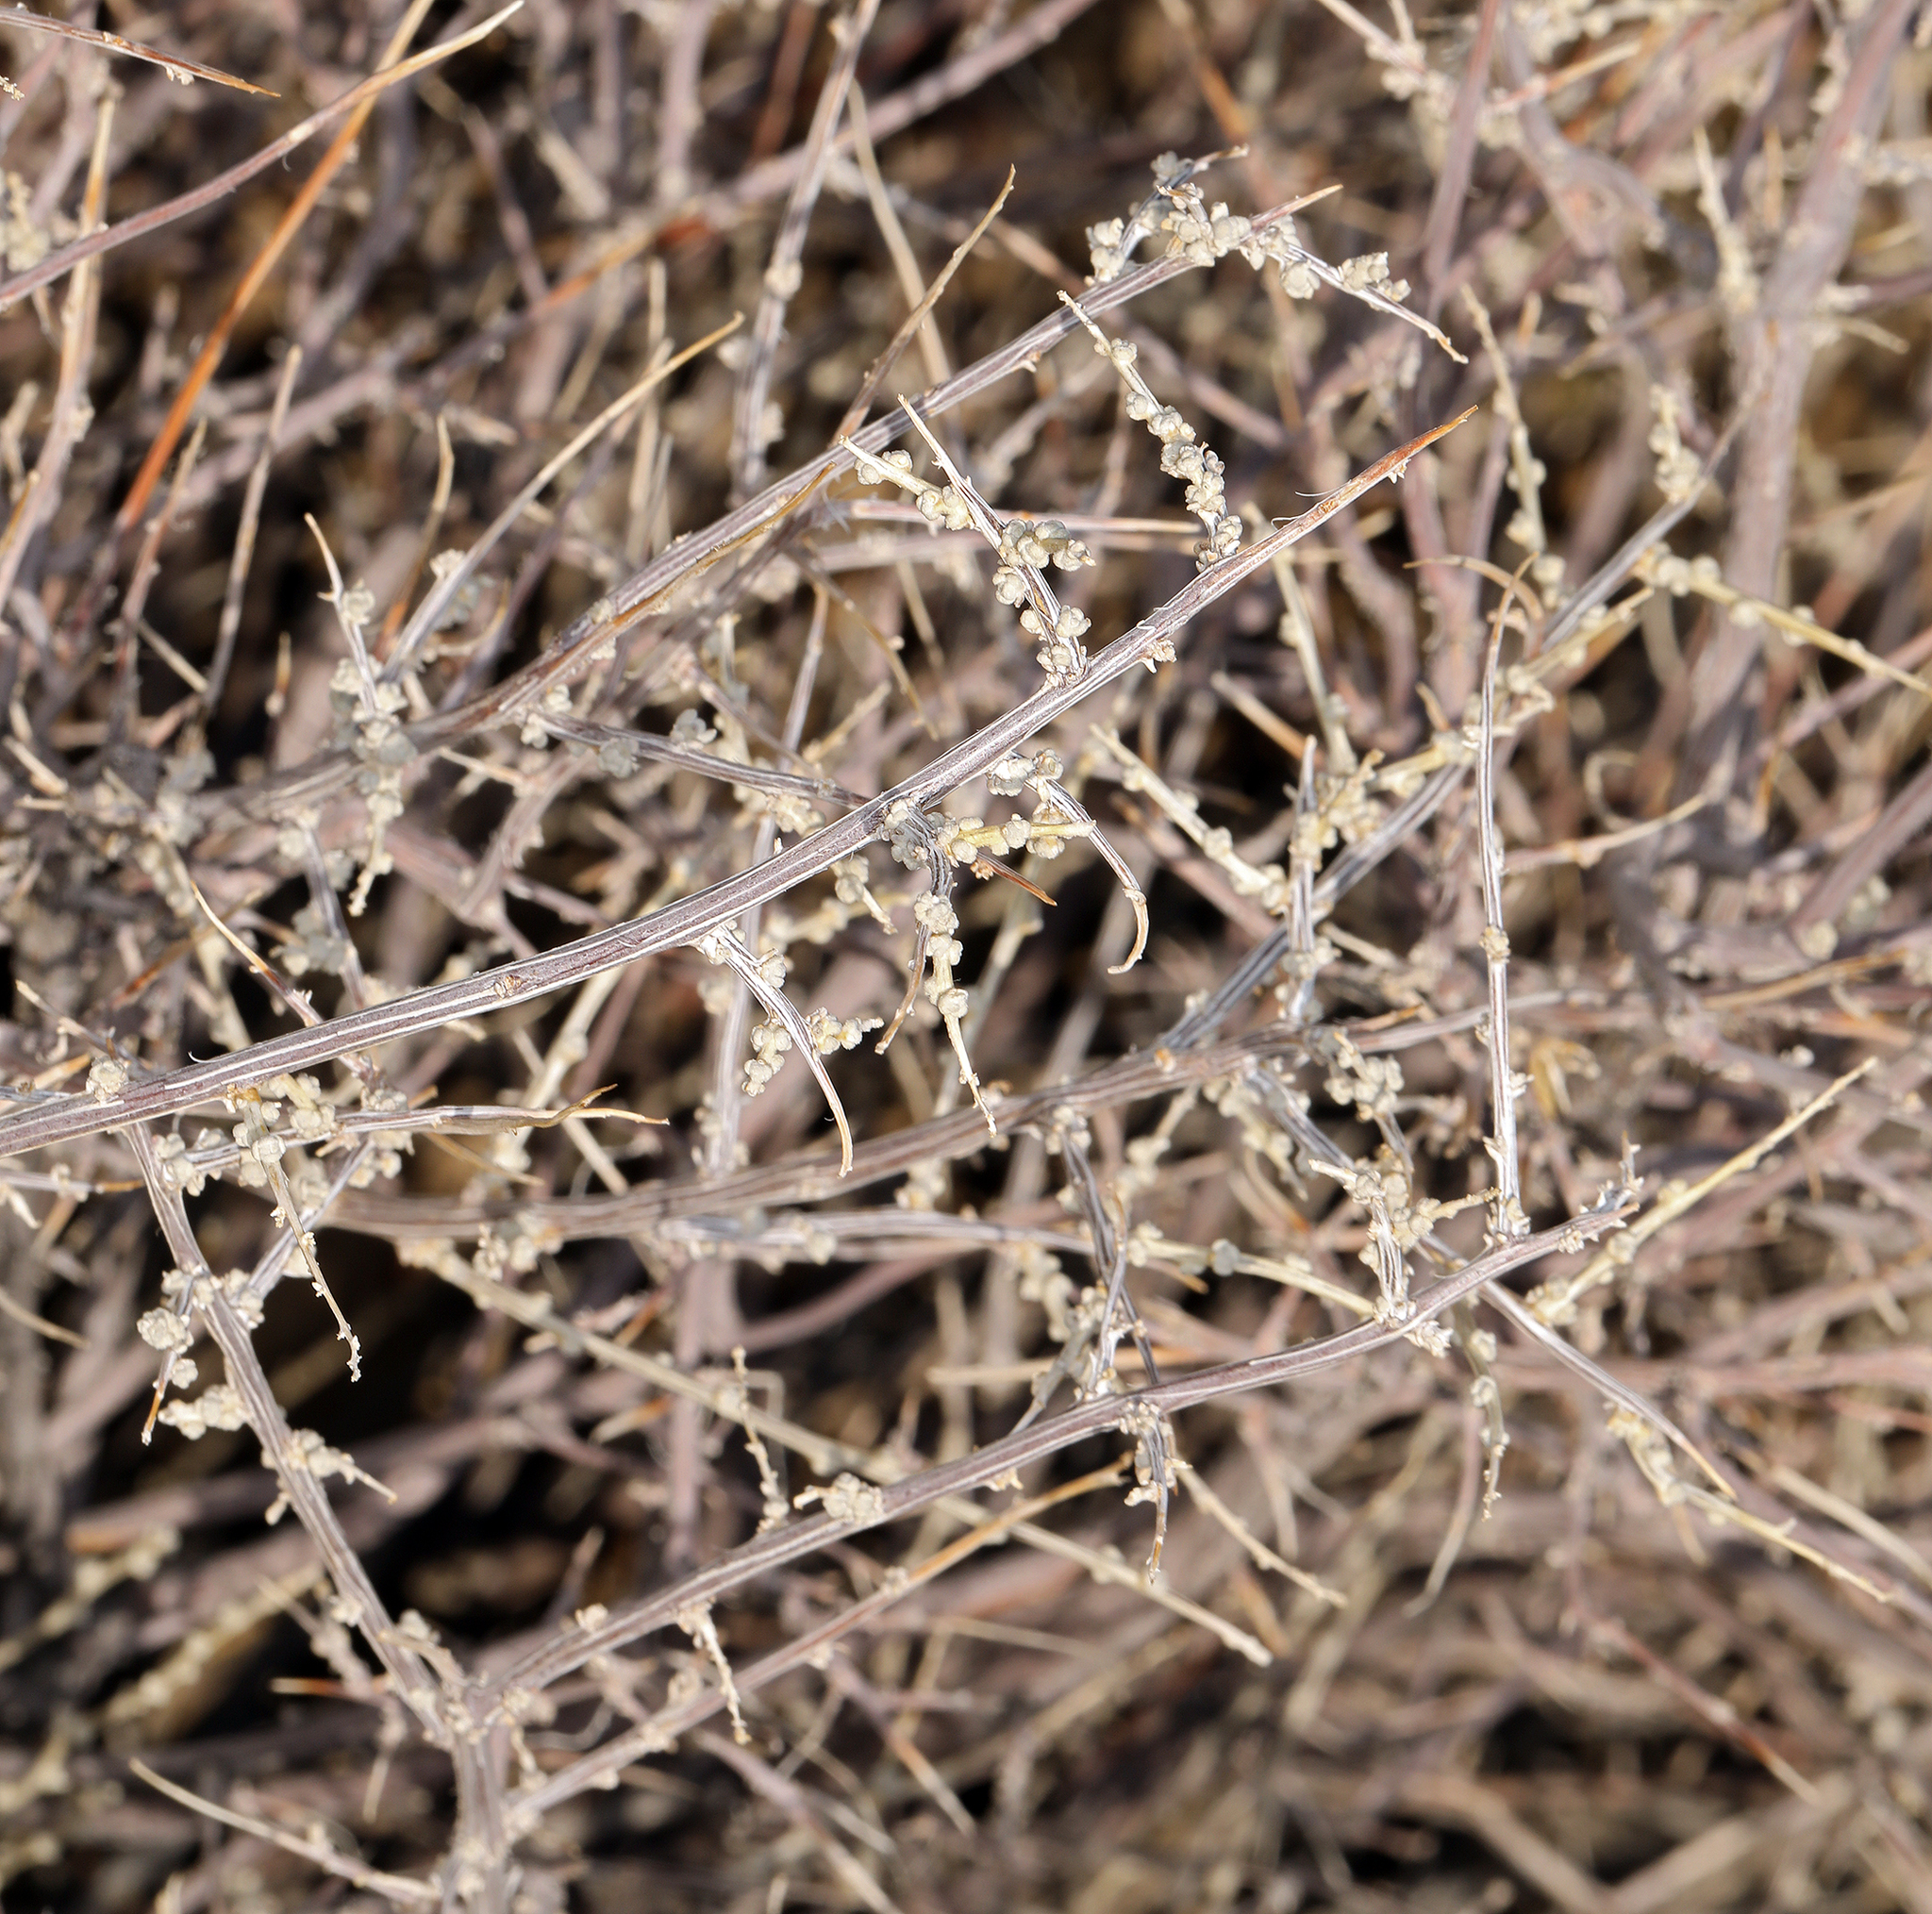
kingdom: Plantae
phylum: Tracheophyta
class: Magnoliopsida
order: Caryophyllales
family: Amaranthaceae
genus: Grayia
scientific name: Grayia spinosa
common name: Spiny hopsage
